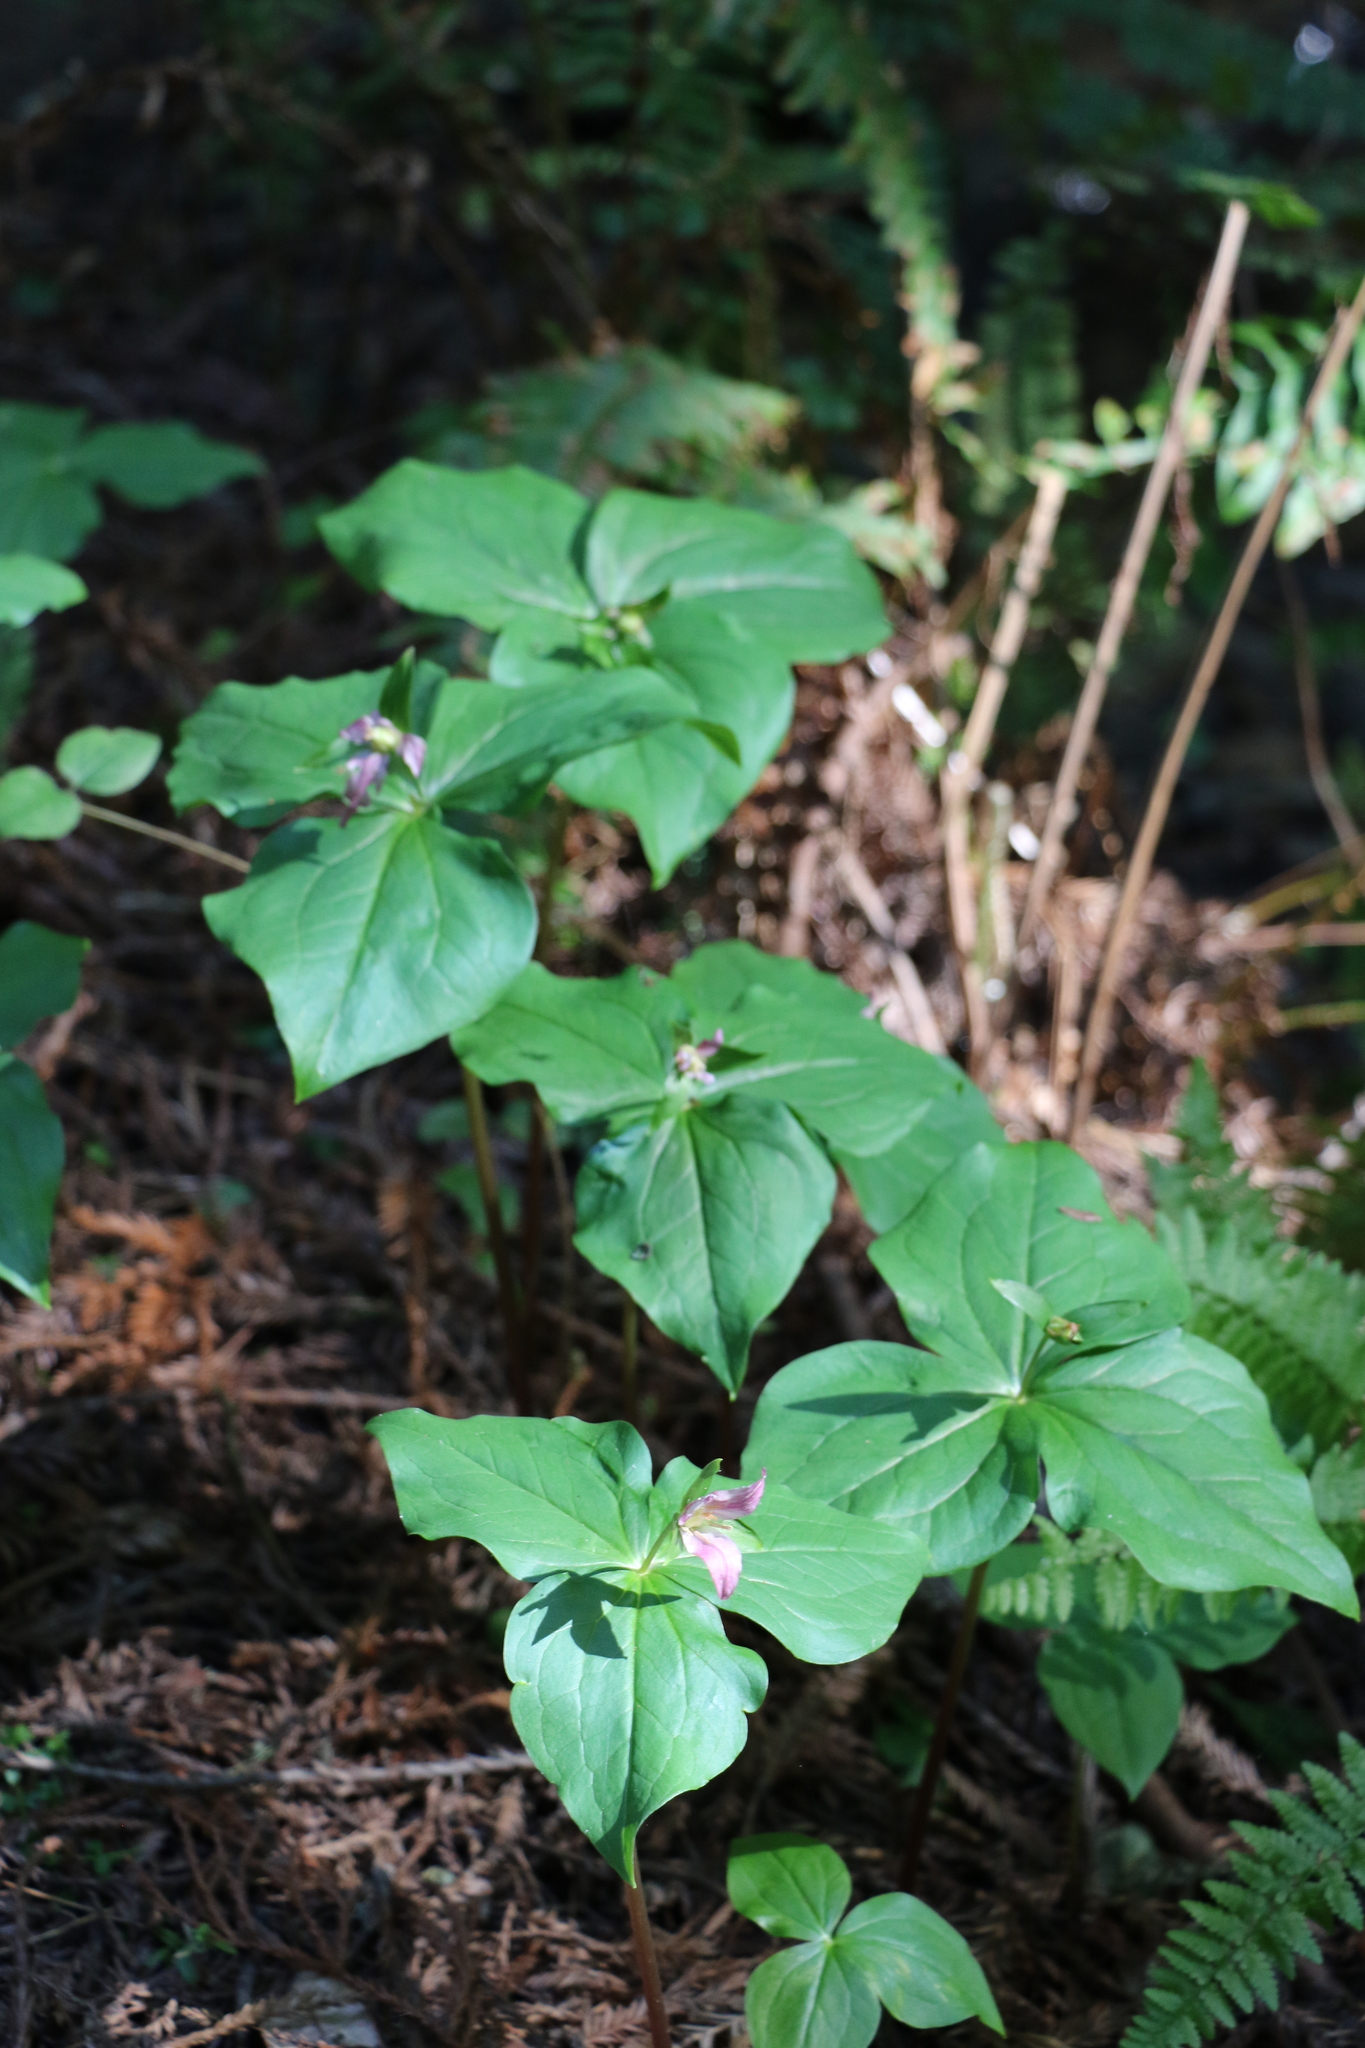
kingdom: Plantae
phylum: Tracheophyta
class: Liliopsida
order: Liliales
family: Melanthiaceae
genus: Trillium
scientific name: Trillium ovatum
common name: Pacific trillium
